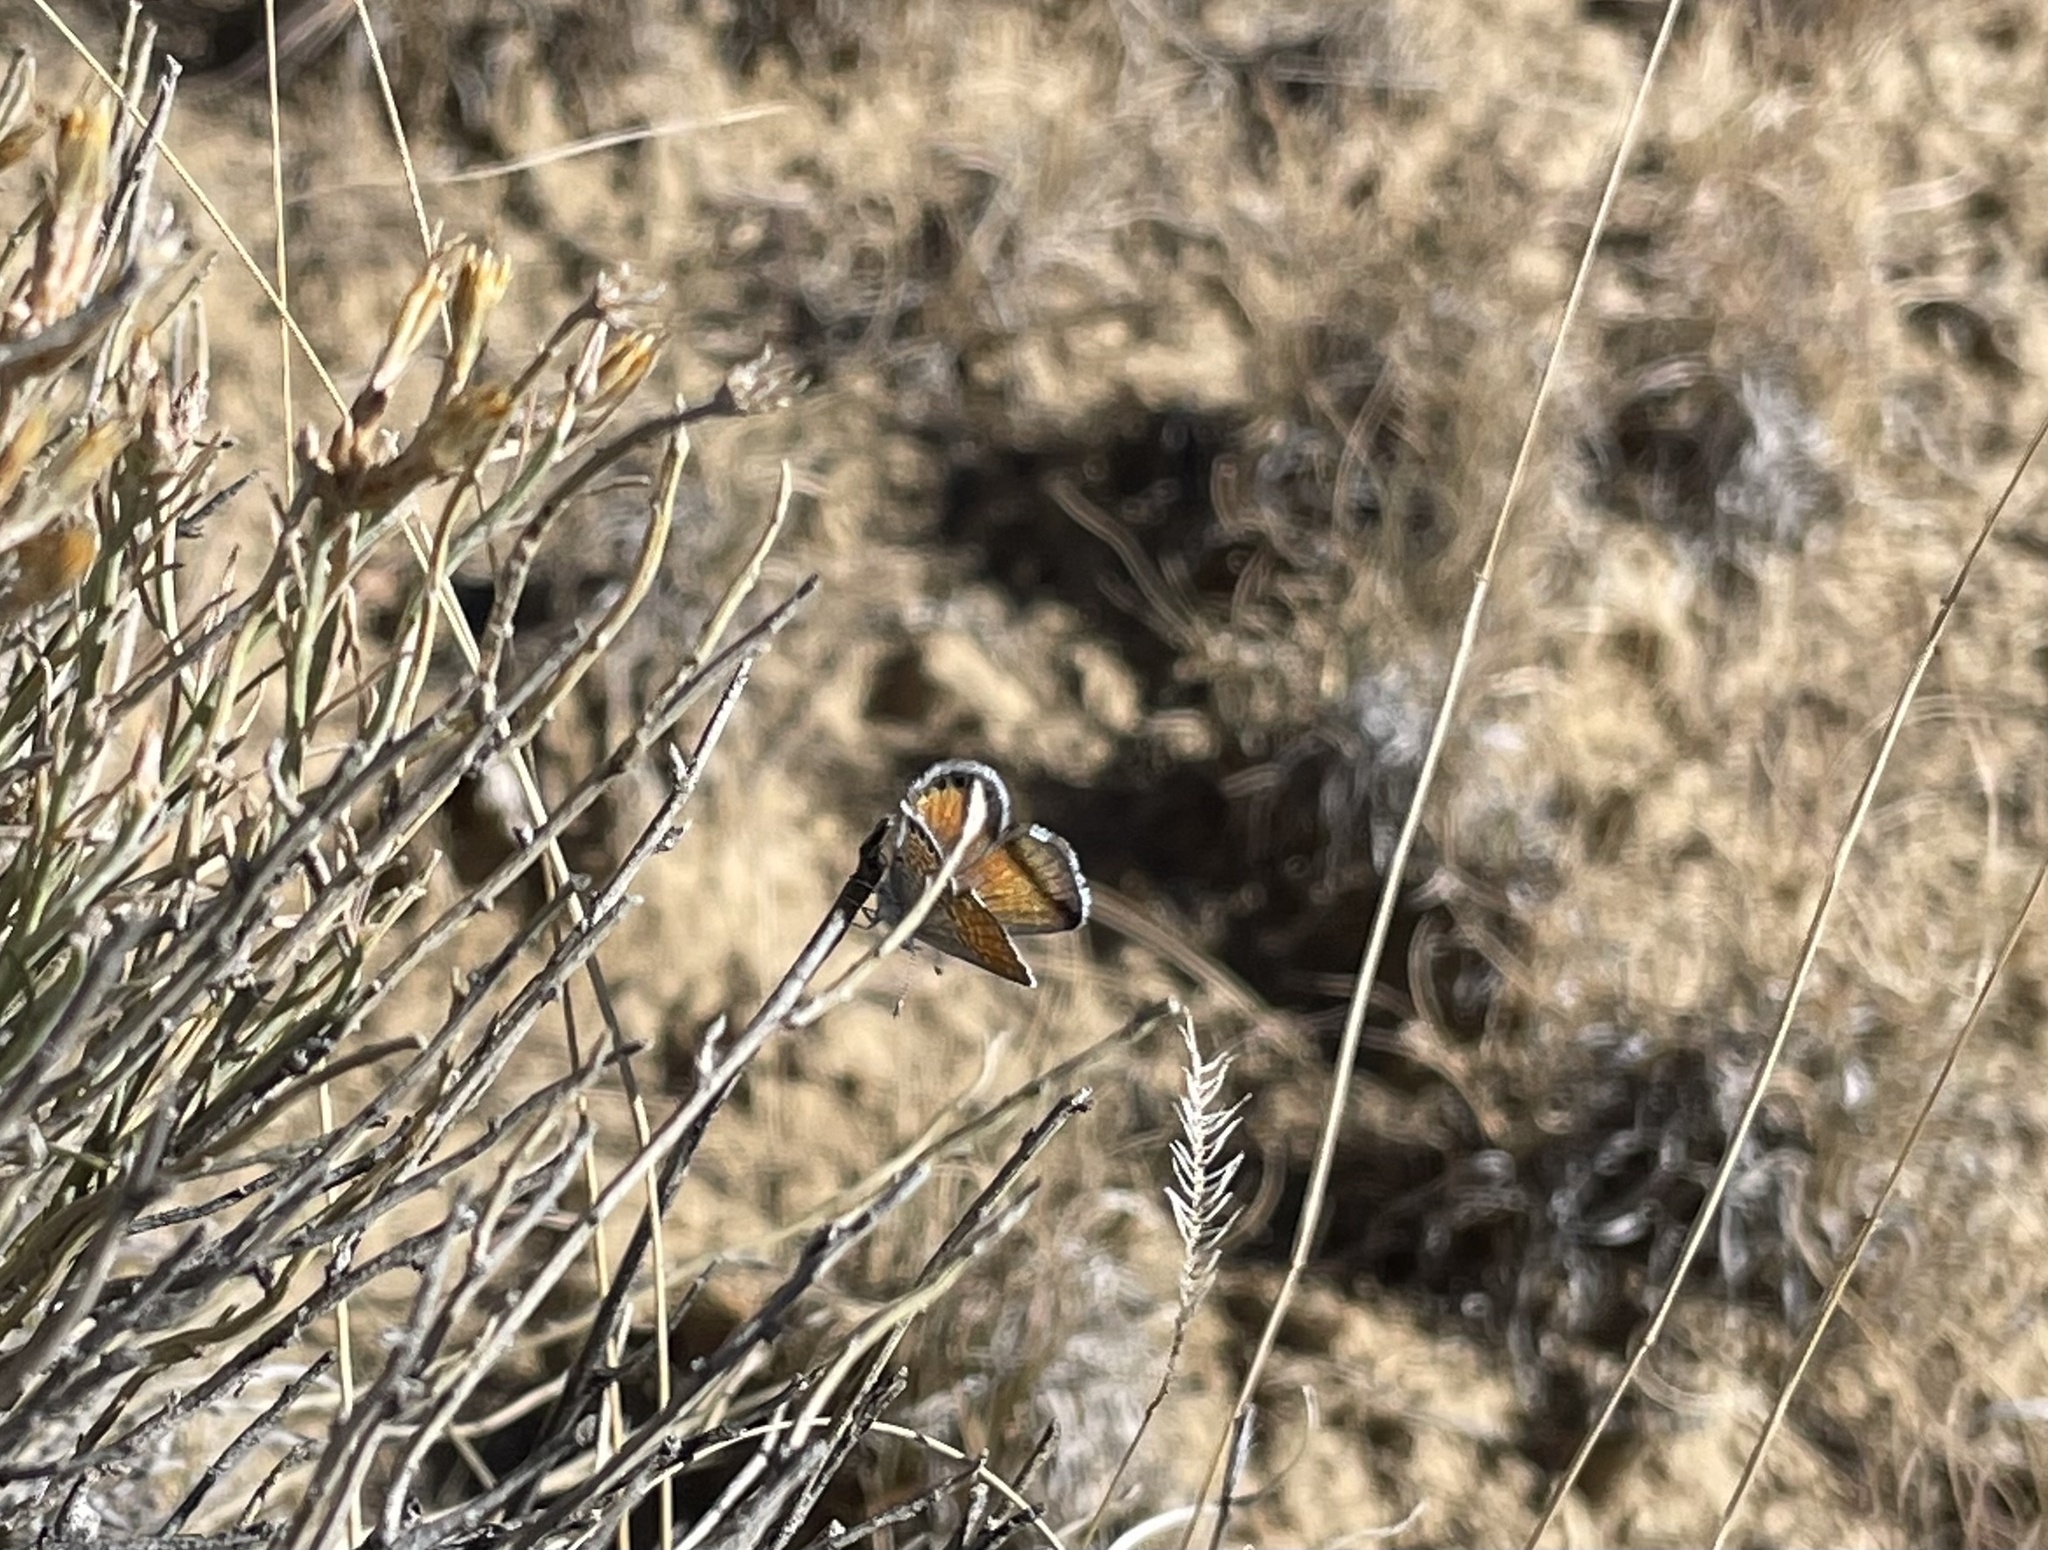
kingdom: Animalia
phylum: Arthropoda
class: Insecta
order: Lepidoptera
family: Lycaenidae
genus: Brephidium
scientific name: Brephidium exilis
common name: Pygmy blue
